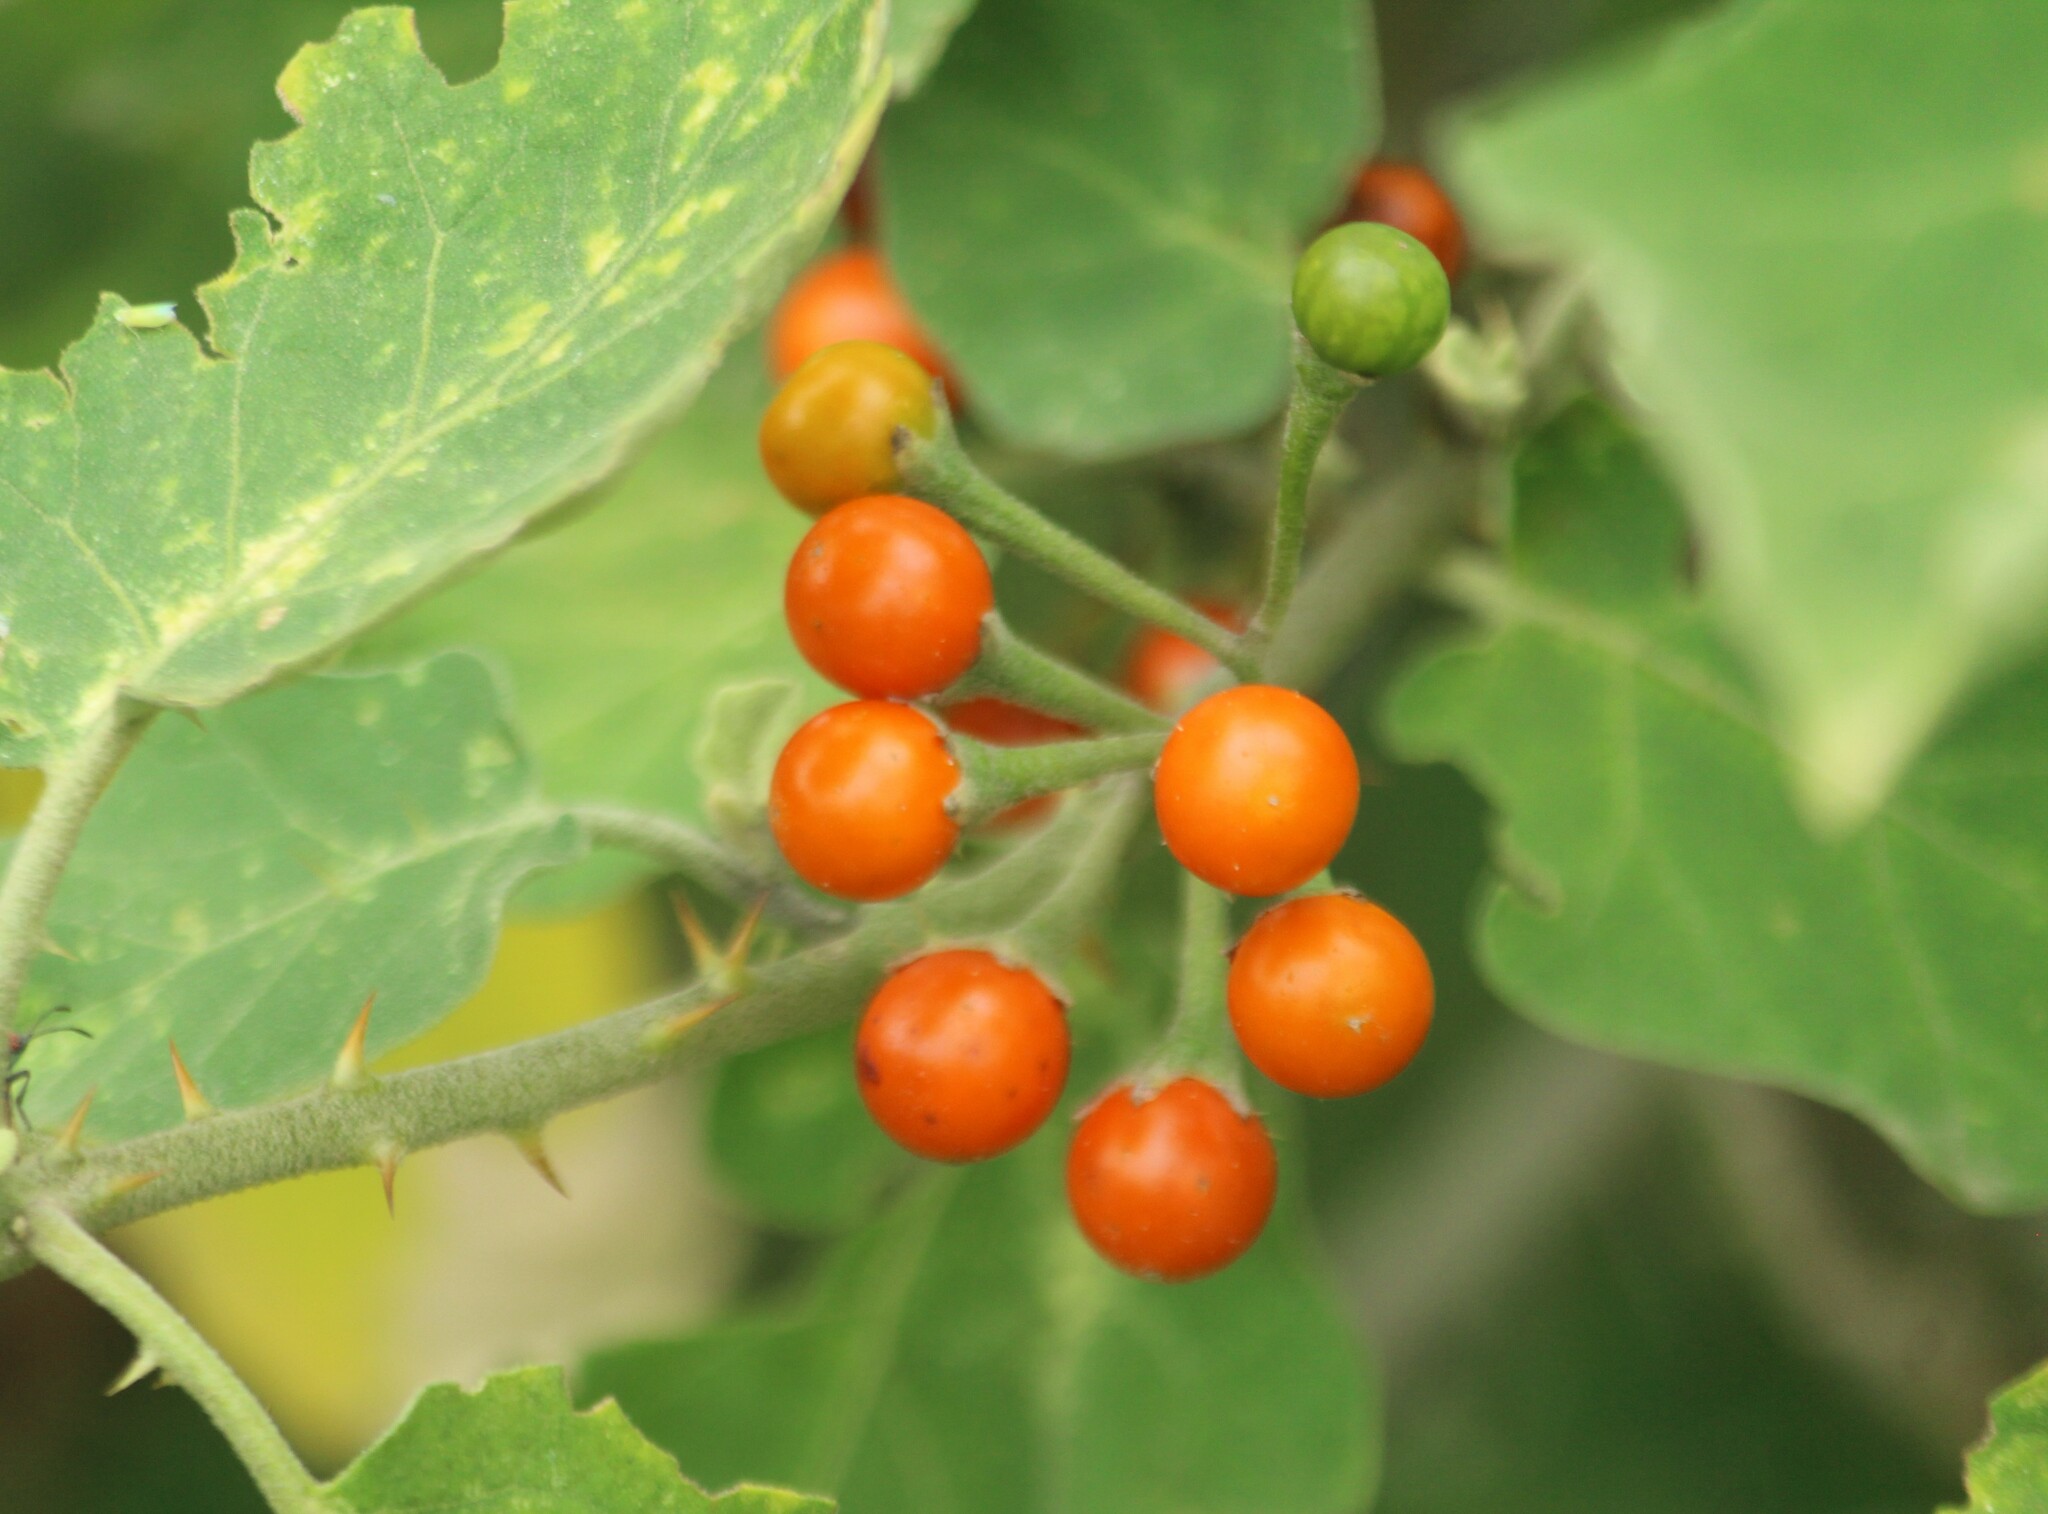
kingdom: Plantae
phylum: Tracheophyta
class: Magnoliopsida
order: Solanales
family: Solanaceae
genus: Solanum
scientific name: Solanum violaceum
